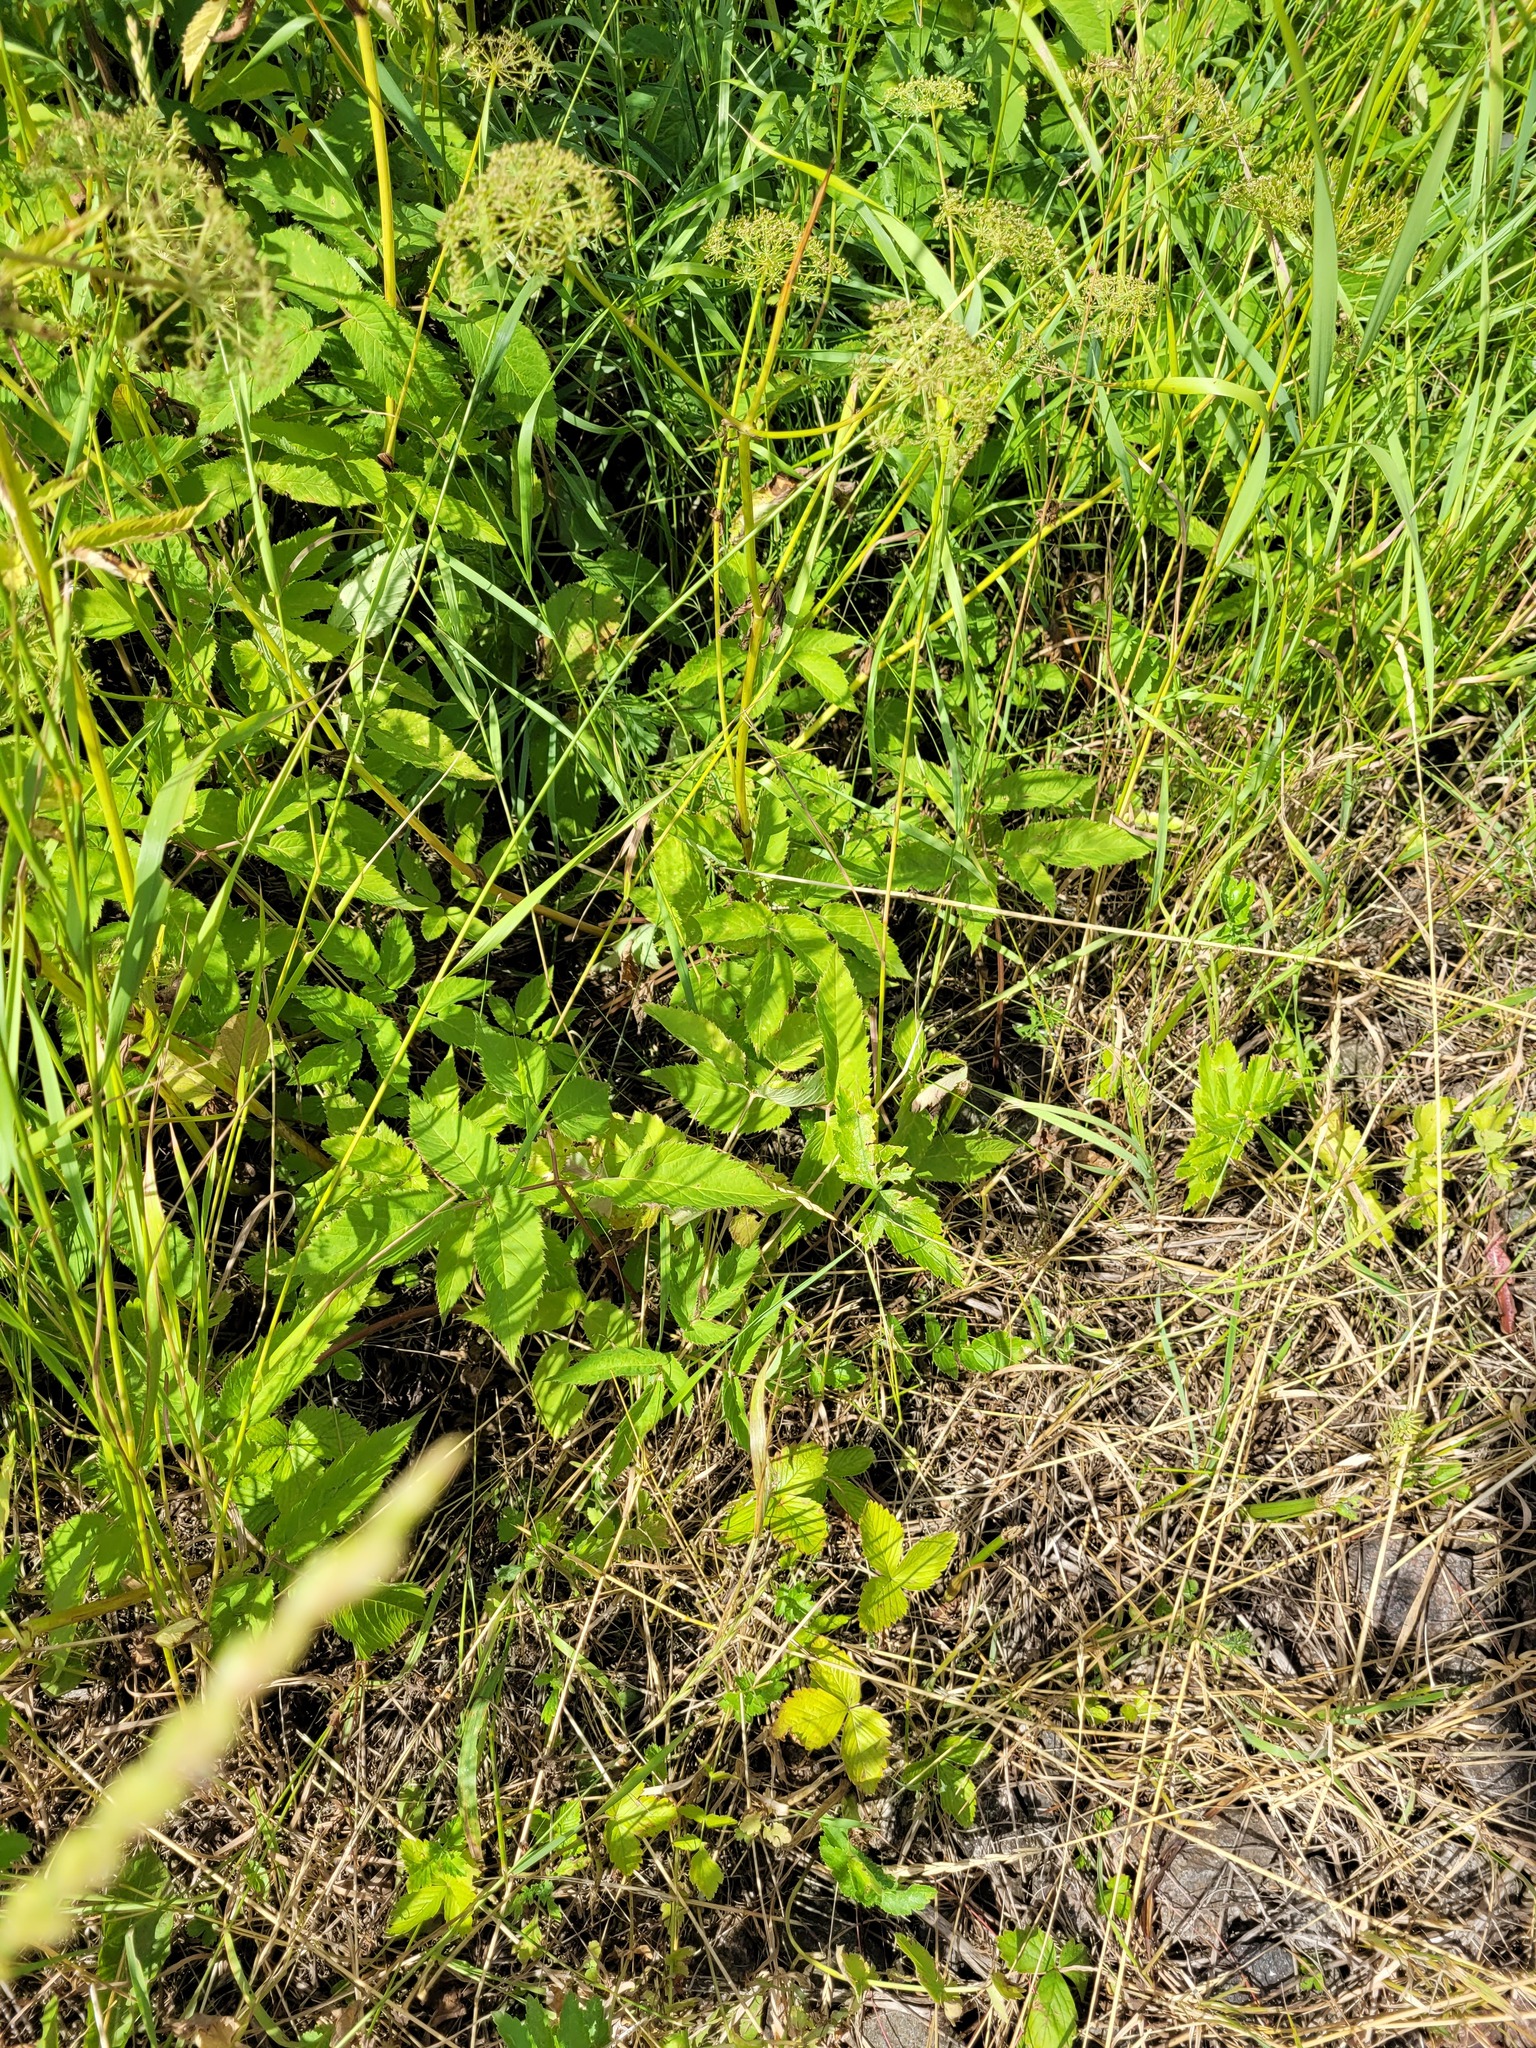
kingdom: Plantae
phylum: Tracheophyta
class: Magnoliopsida
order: Apiales
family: Apiaceae
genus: Aegopodium
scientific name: Aegopodium podagraria
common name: Ground-elder
